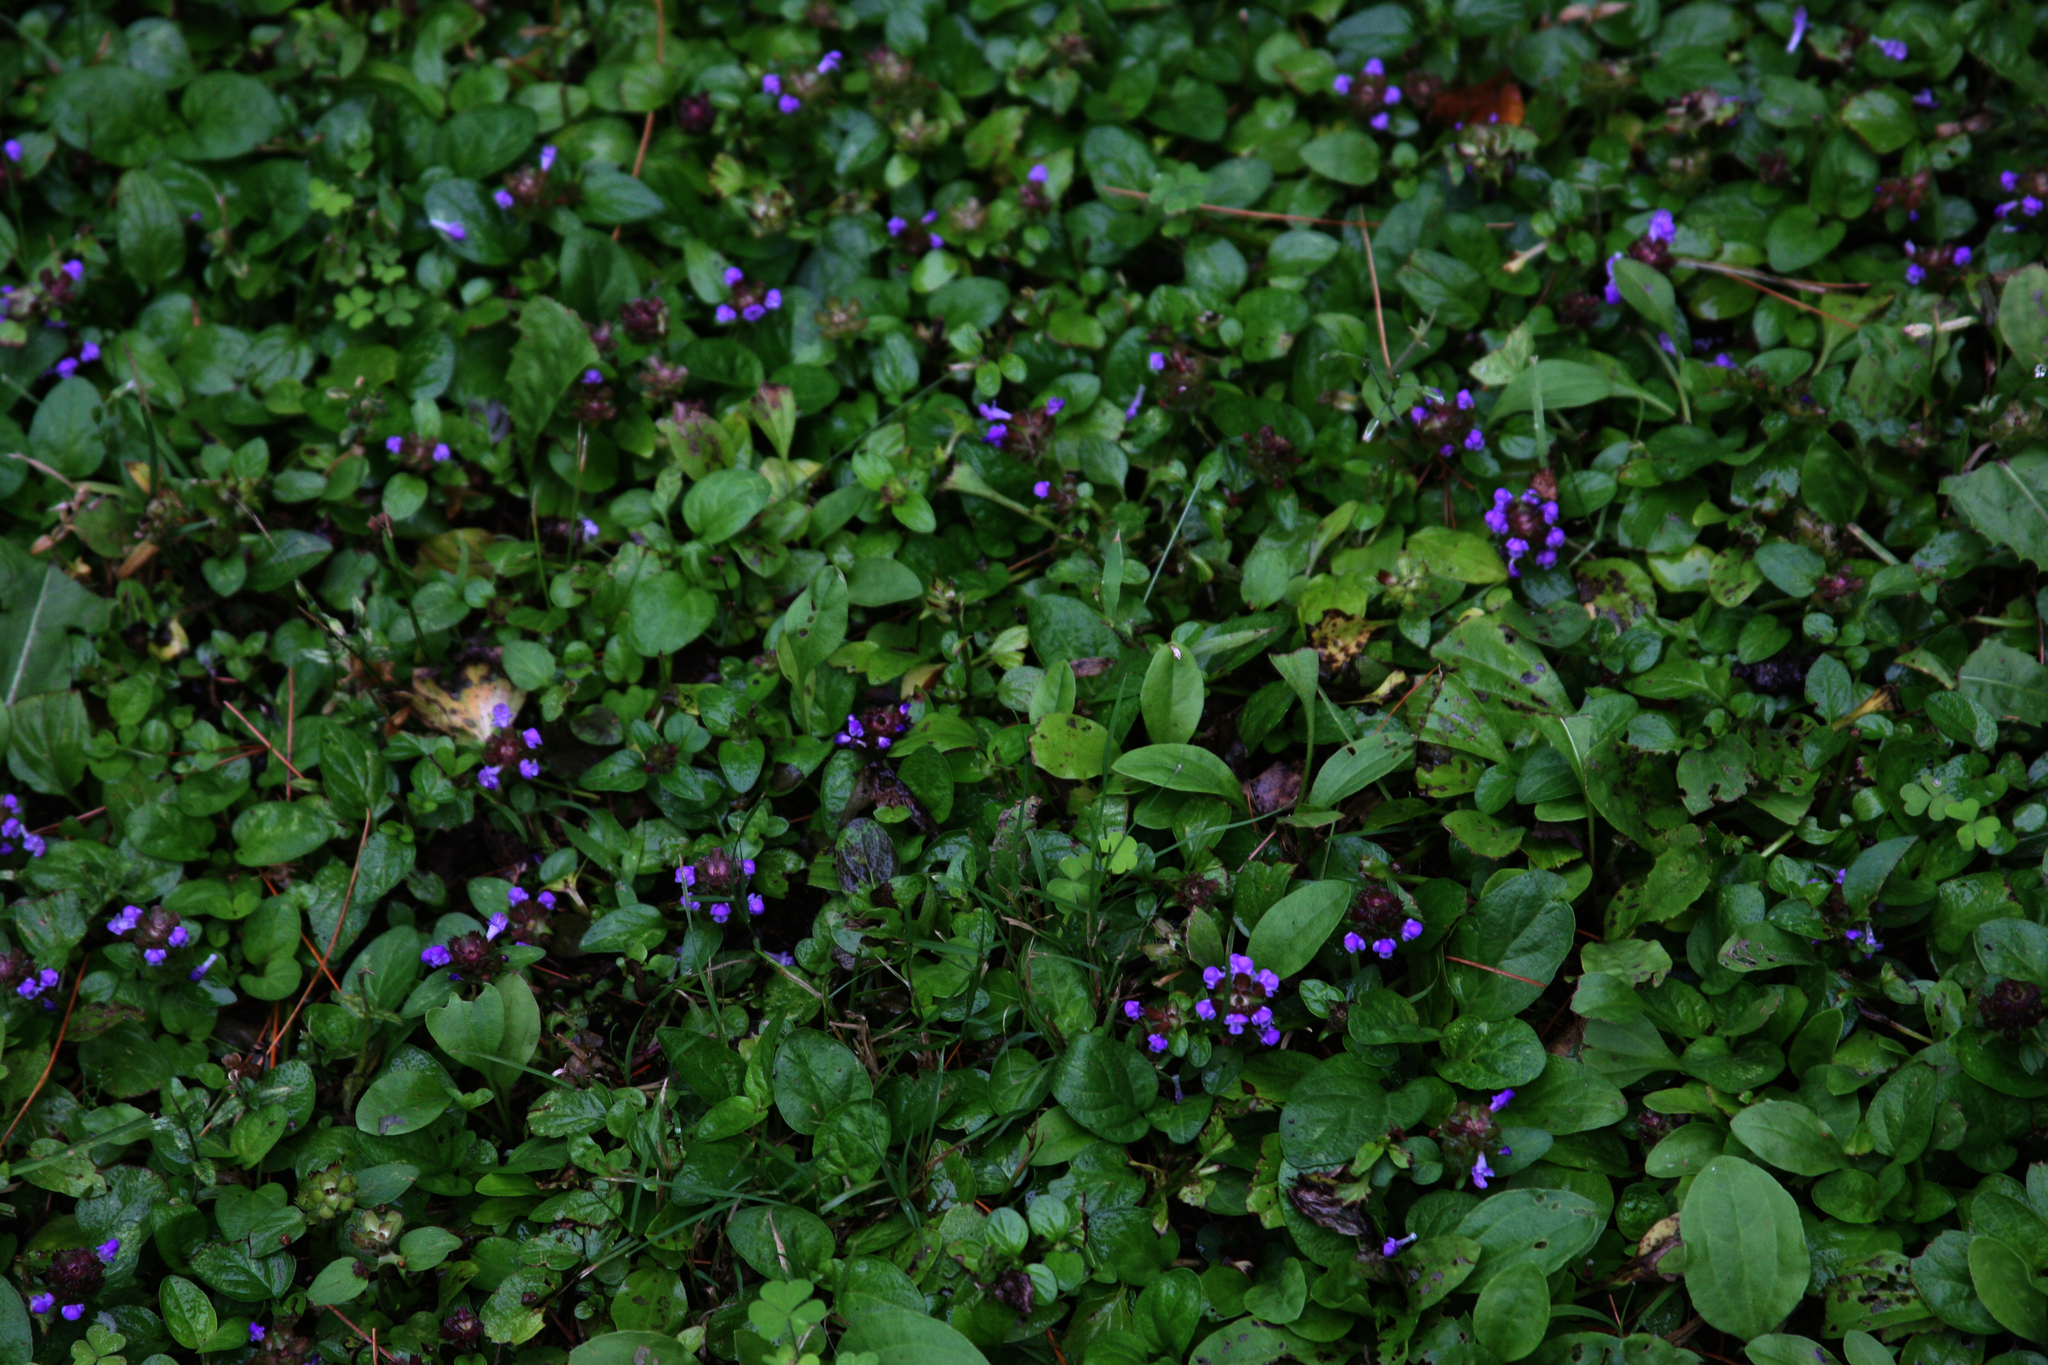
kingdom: Plantae
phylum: Tracheophyta
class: Magnoliopsida
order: Lamiales
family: Lamiaceae
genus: Prunella
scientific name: Prunella vulgaris
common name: Heal-all
